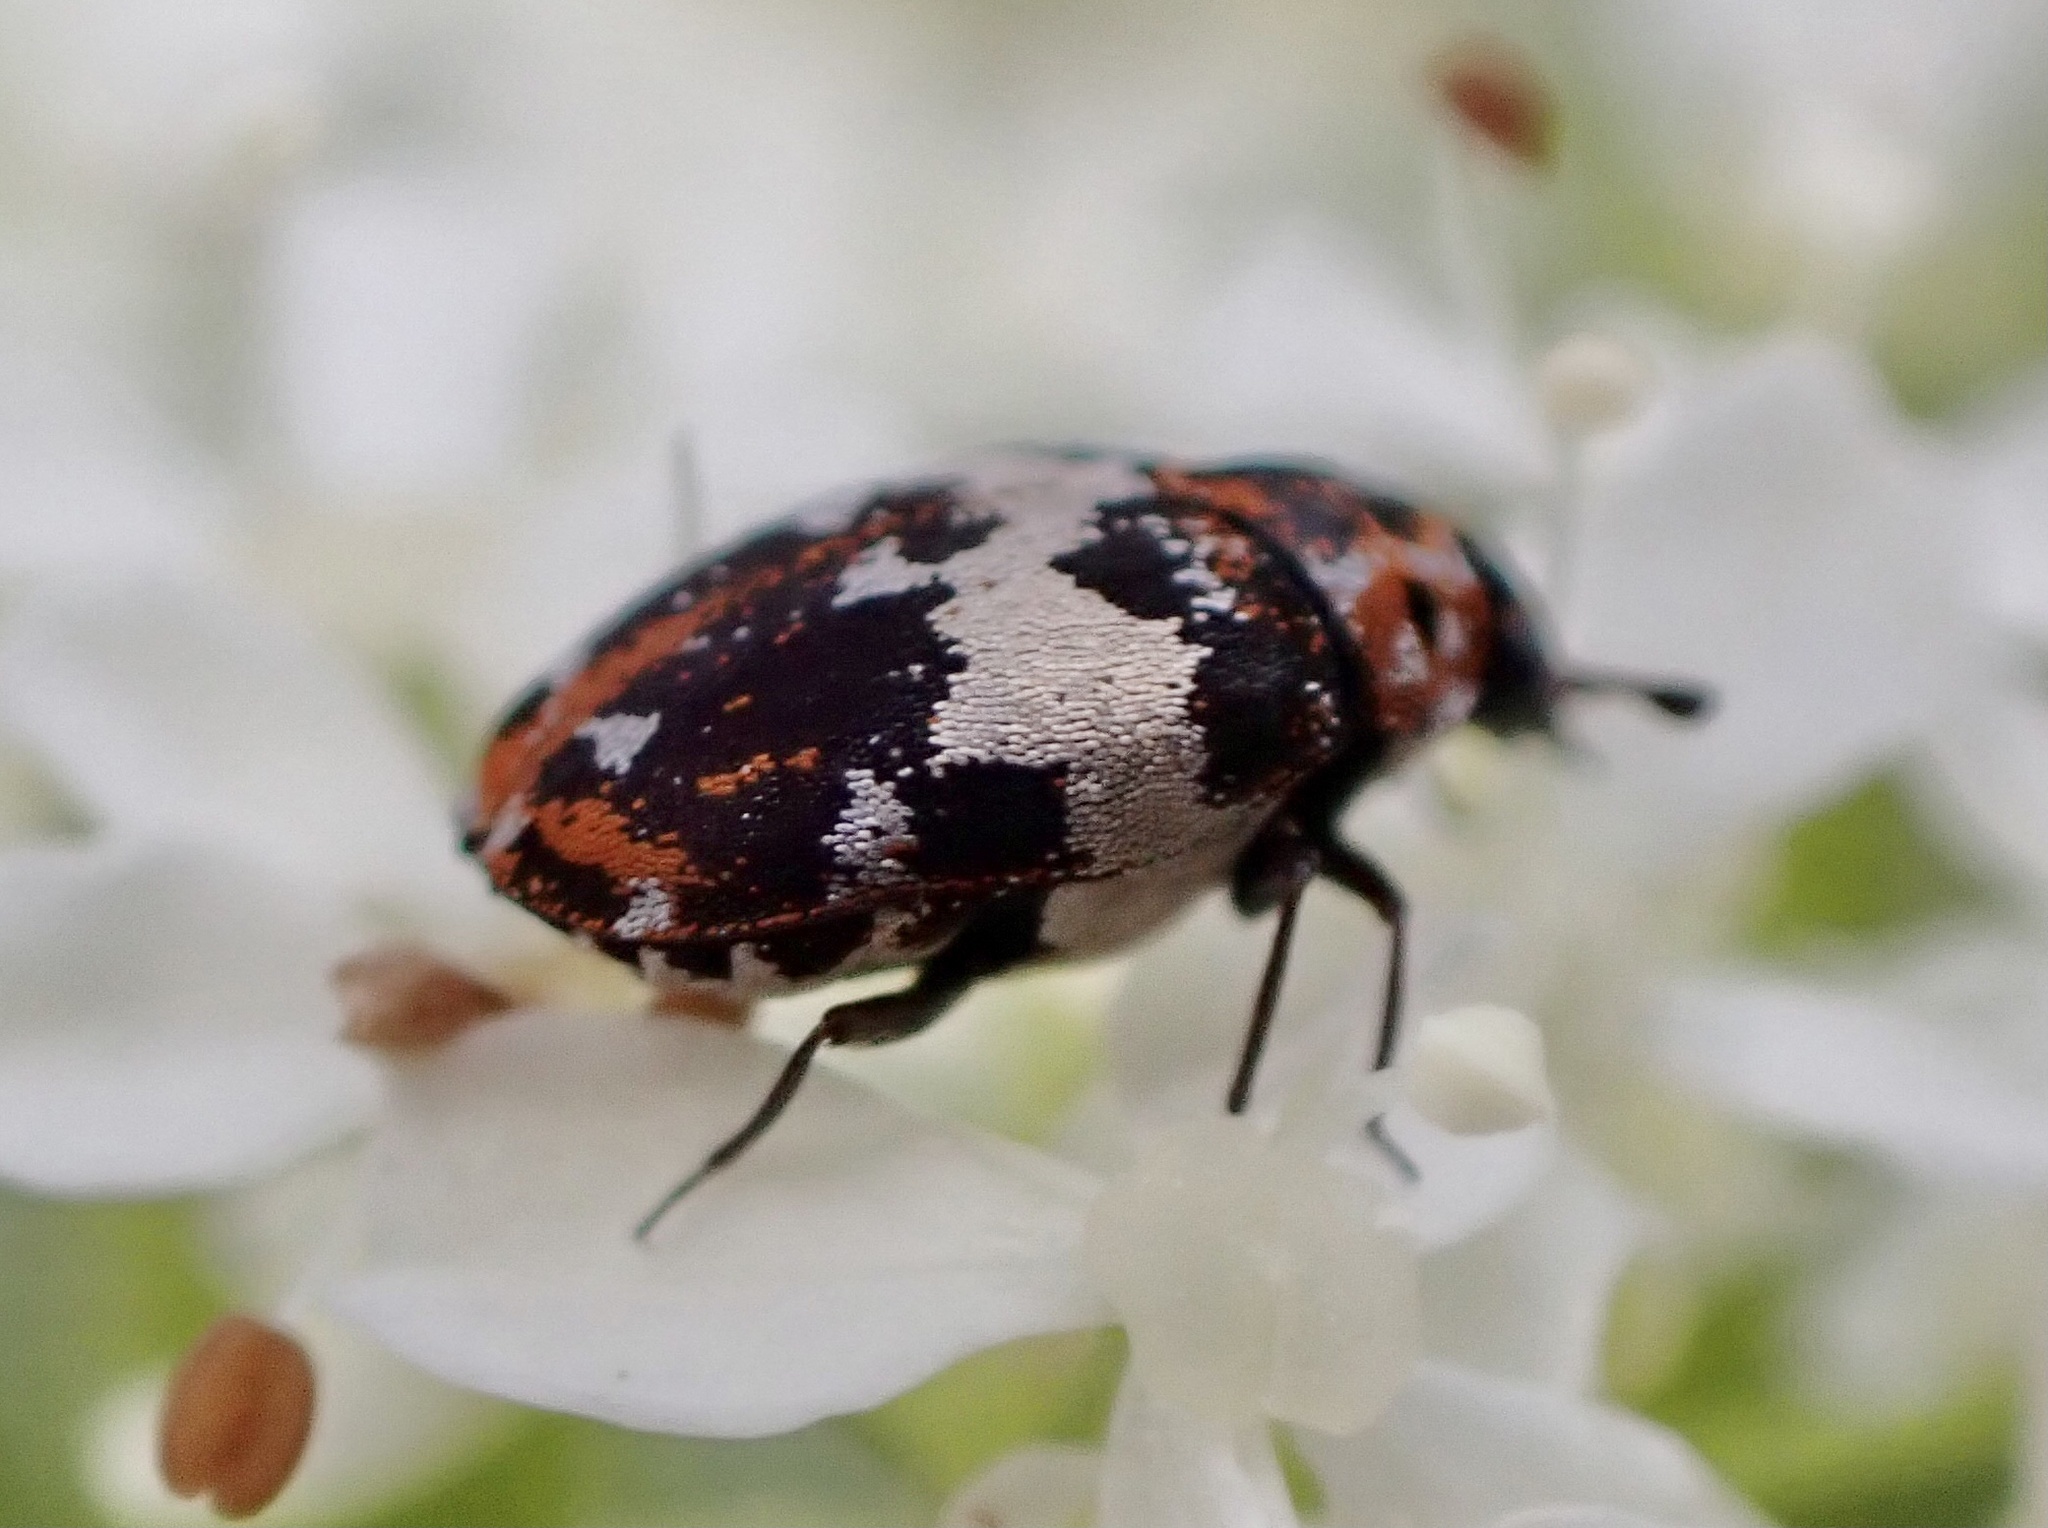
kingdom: Animalia
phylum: Arthropoda
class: Insecta
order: Coleoptera
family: Dermestidae
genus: Anthrenus
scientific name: Anthrenus pimpinellae
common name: Dermestid beetle
